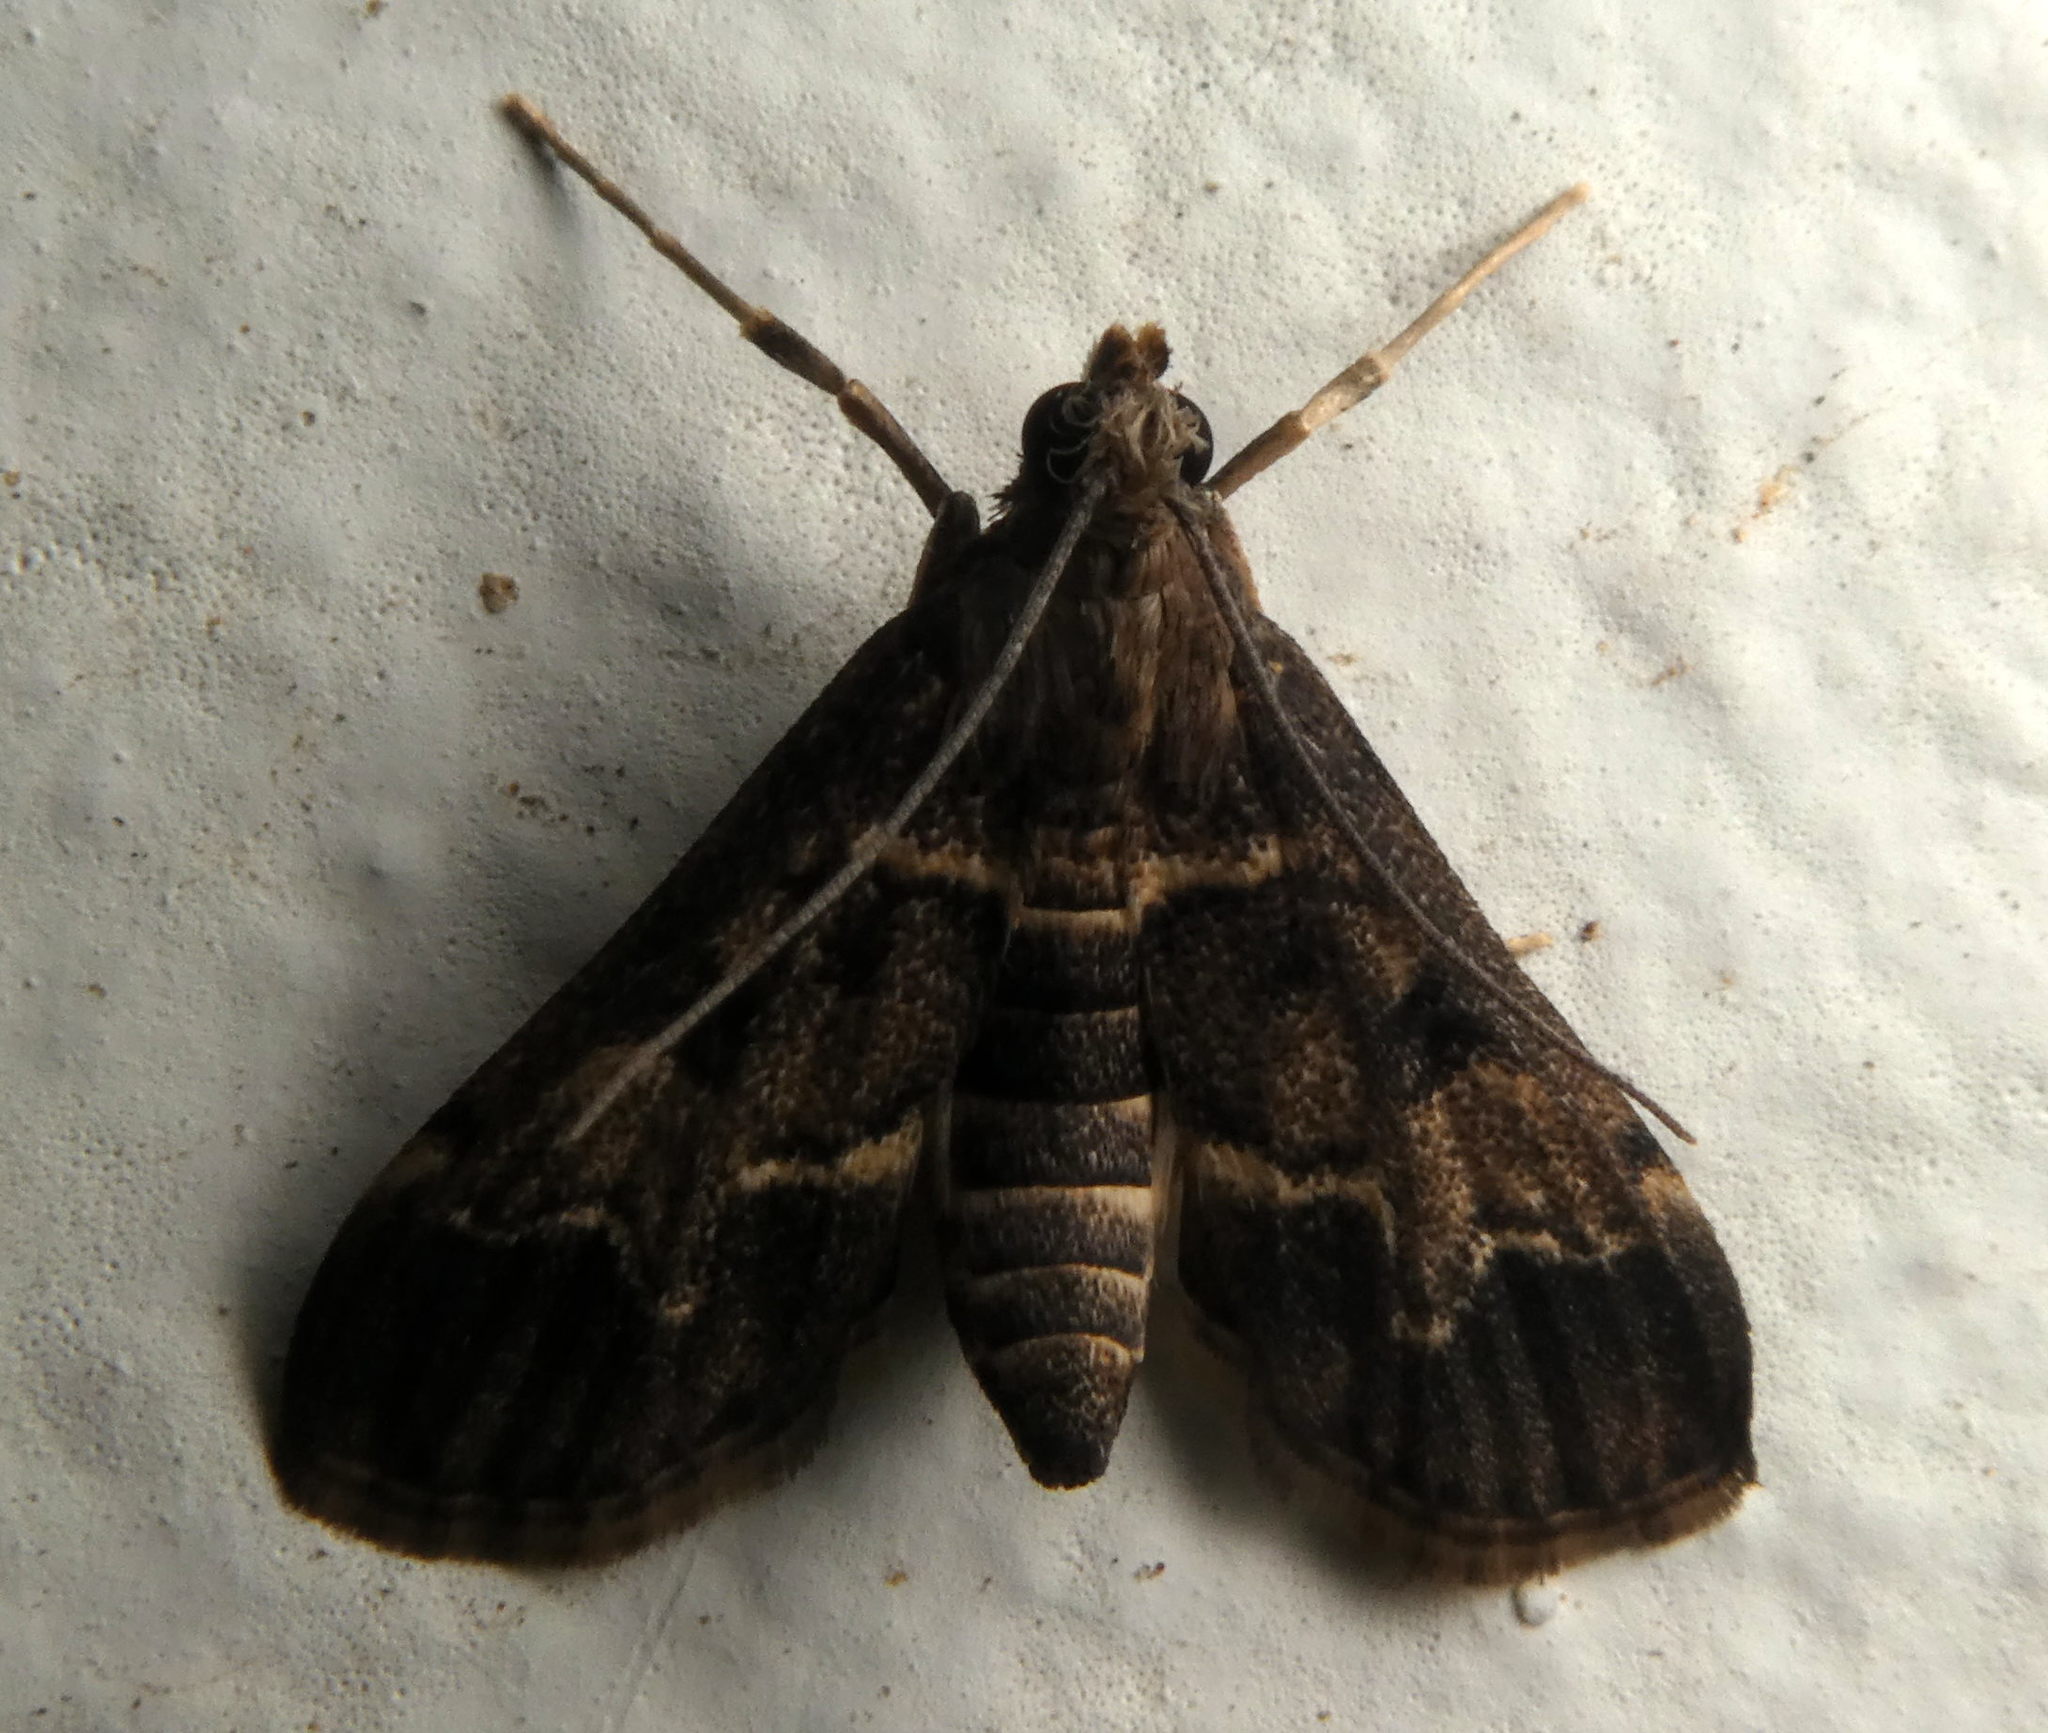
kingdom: Animalia
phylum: Arthropoda
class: Insecta
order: Lepidoptera
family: Crambidae
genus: Duponchelia
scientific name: Duponchelia fovealis
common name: Crambid moth
